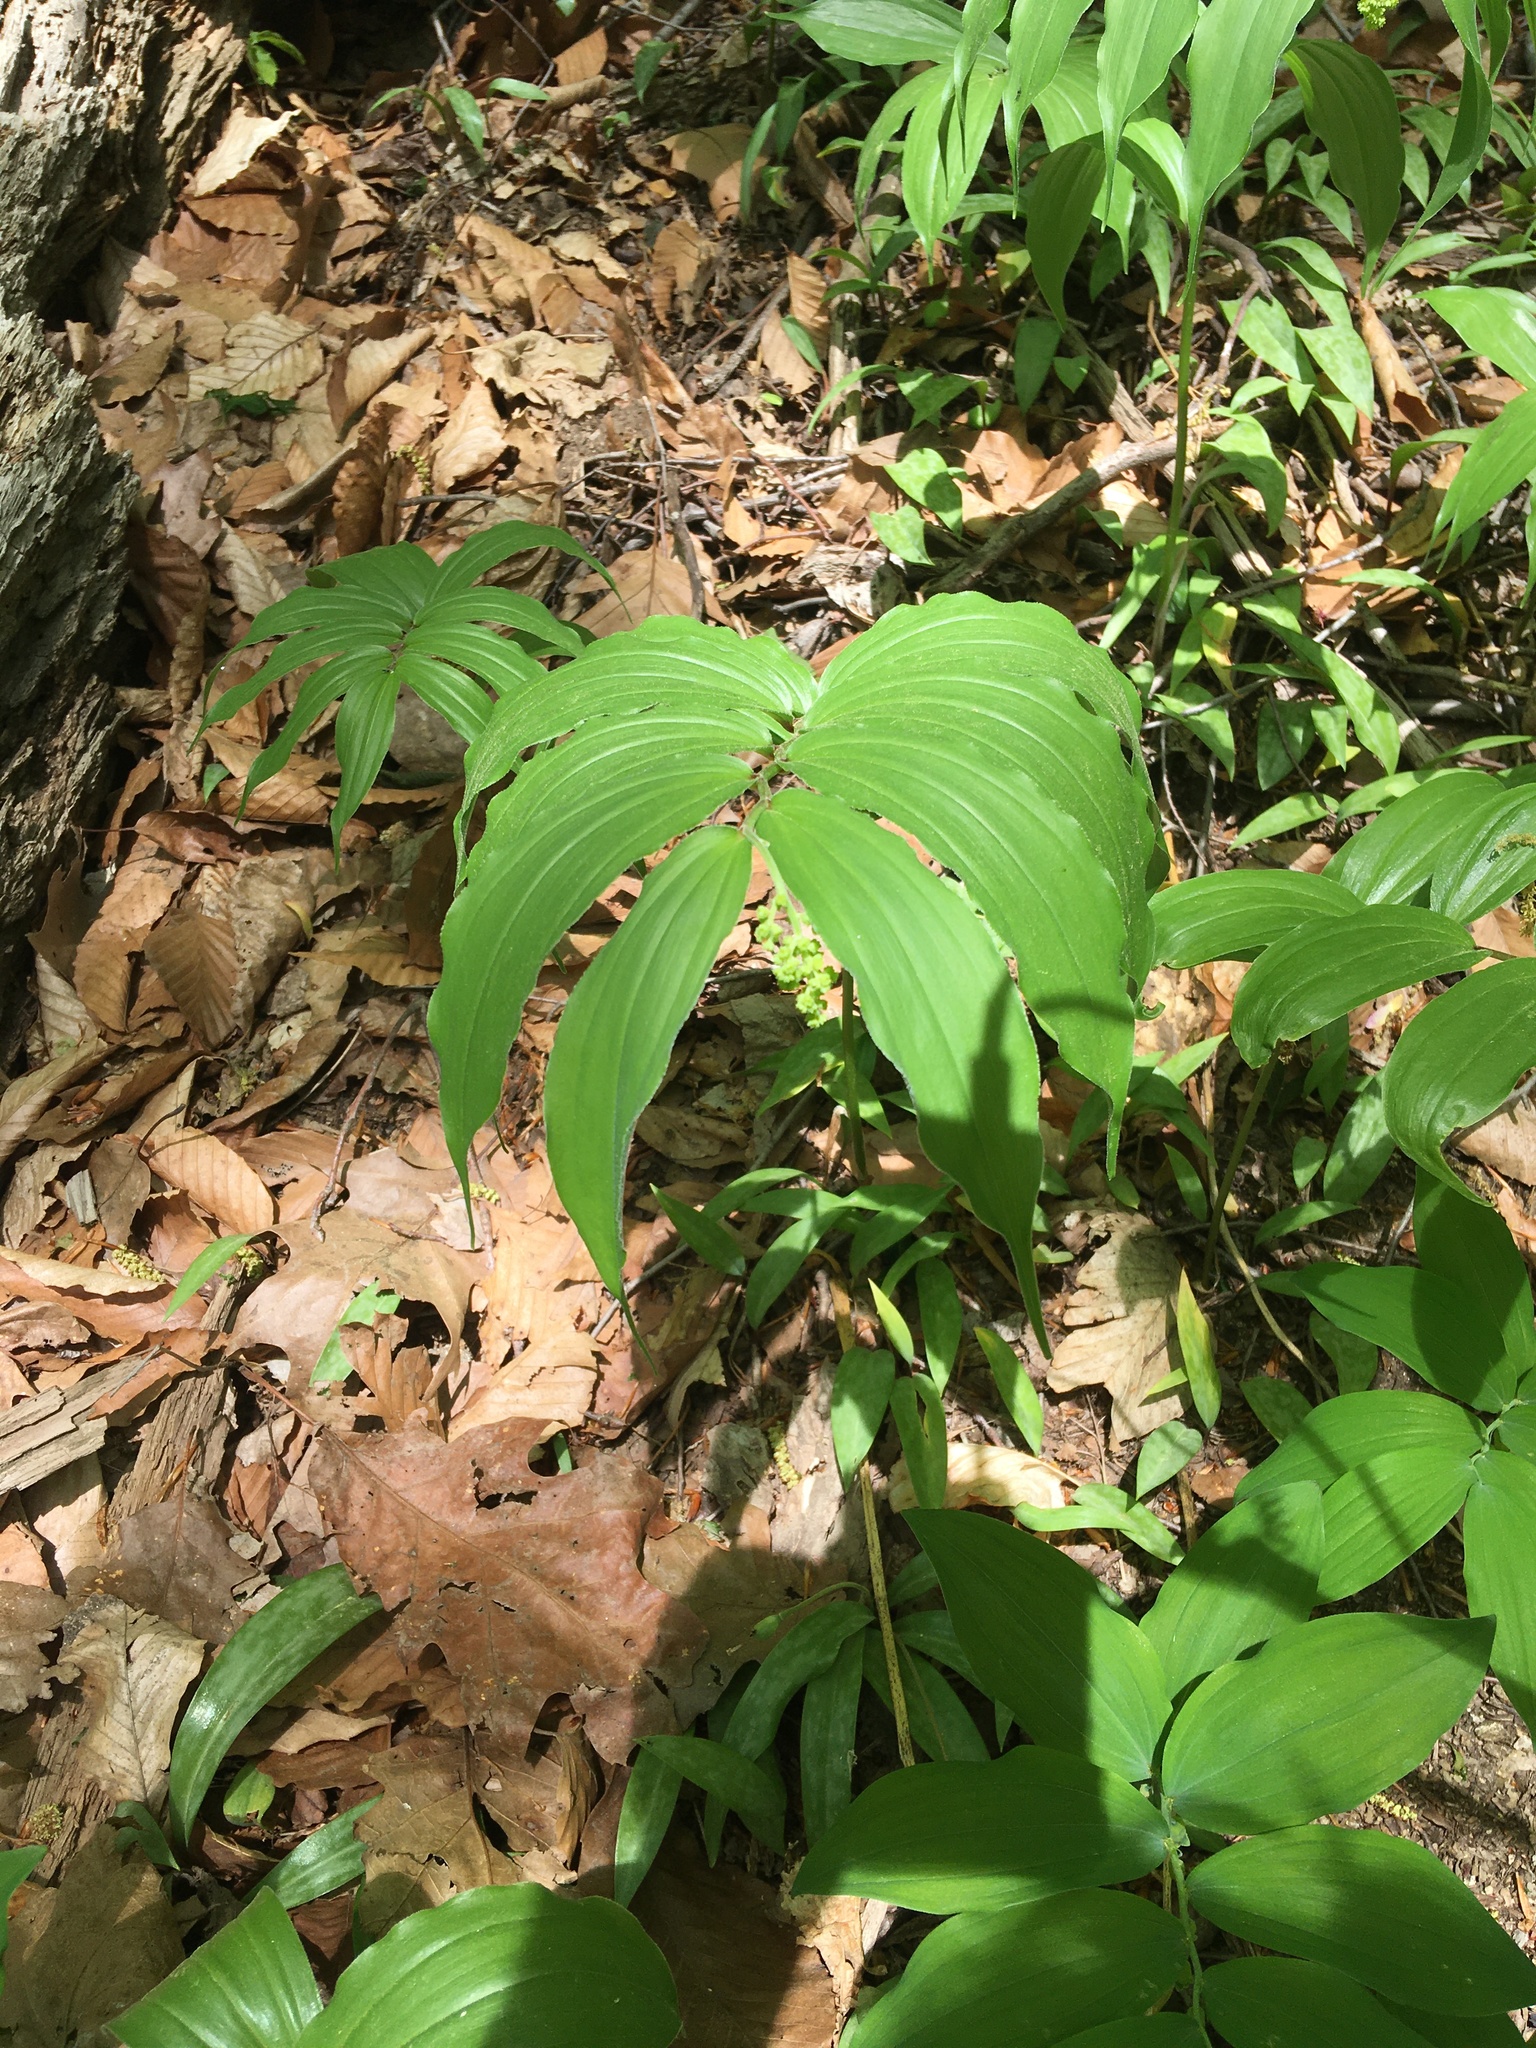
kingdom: Plantae
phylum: Tracheophyta
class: Liliopsida
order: Asparagales
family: Asparagaceae
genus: Maianthemum
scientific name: Maianthemum racemosum
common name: False spikenard
